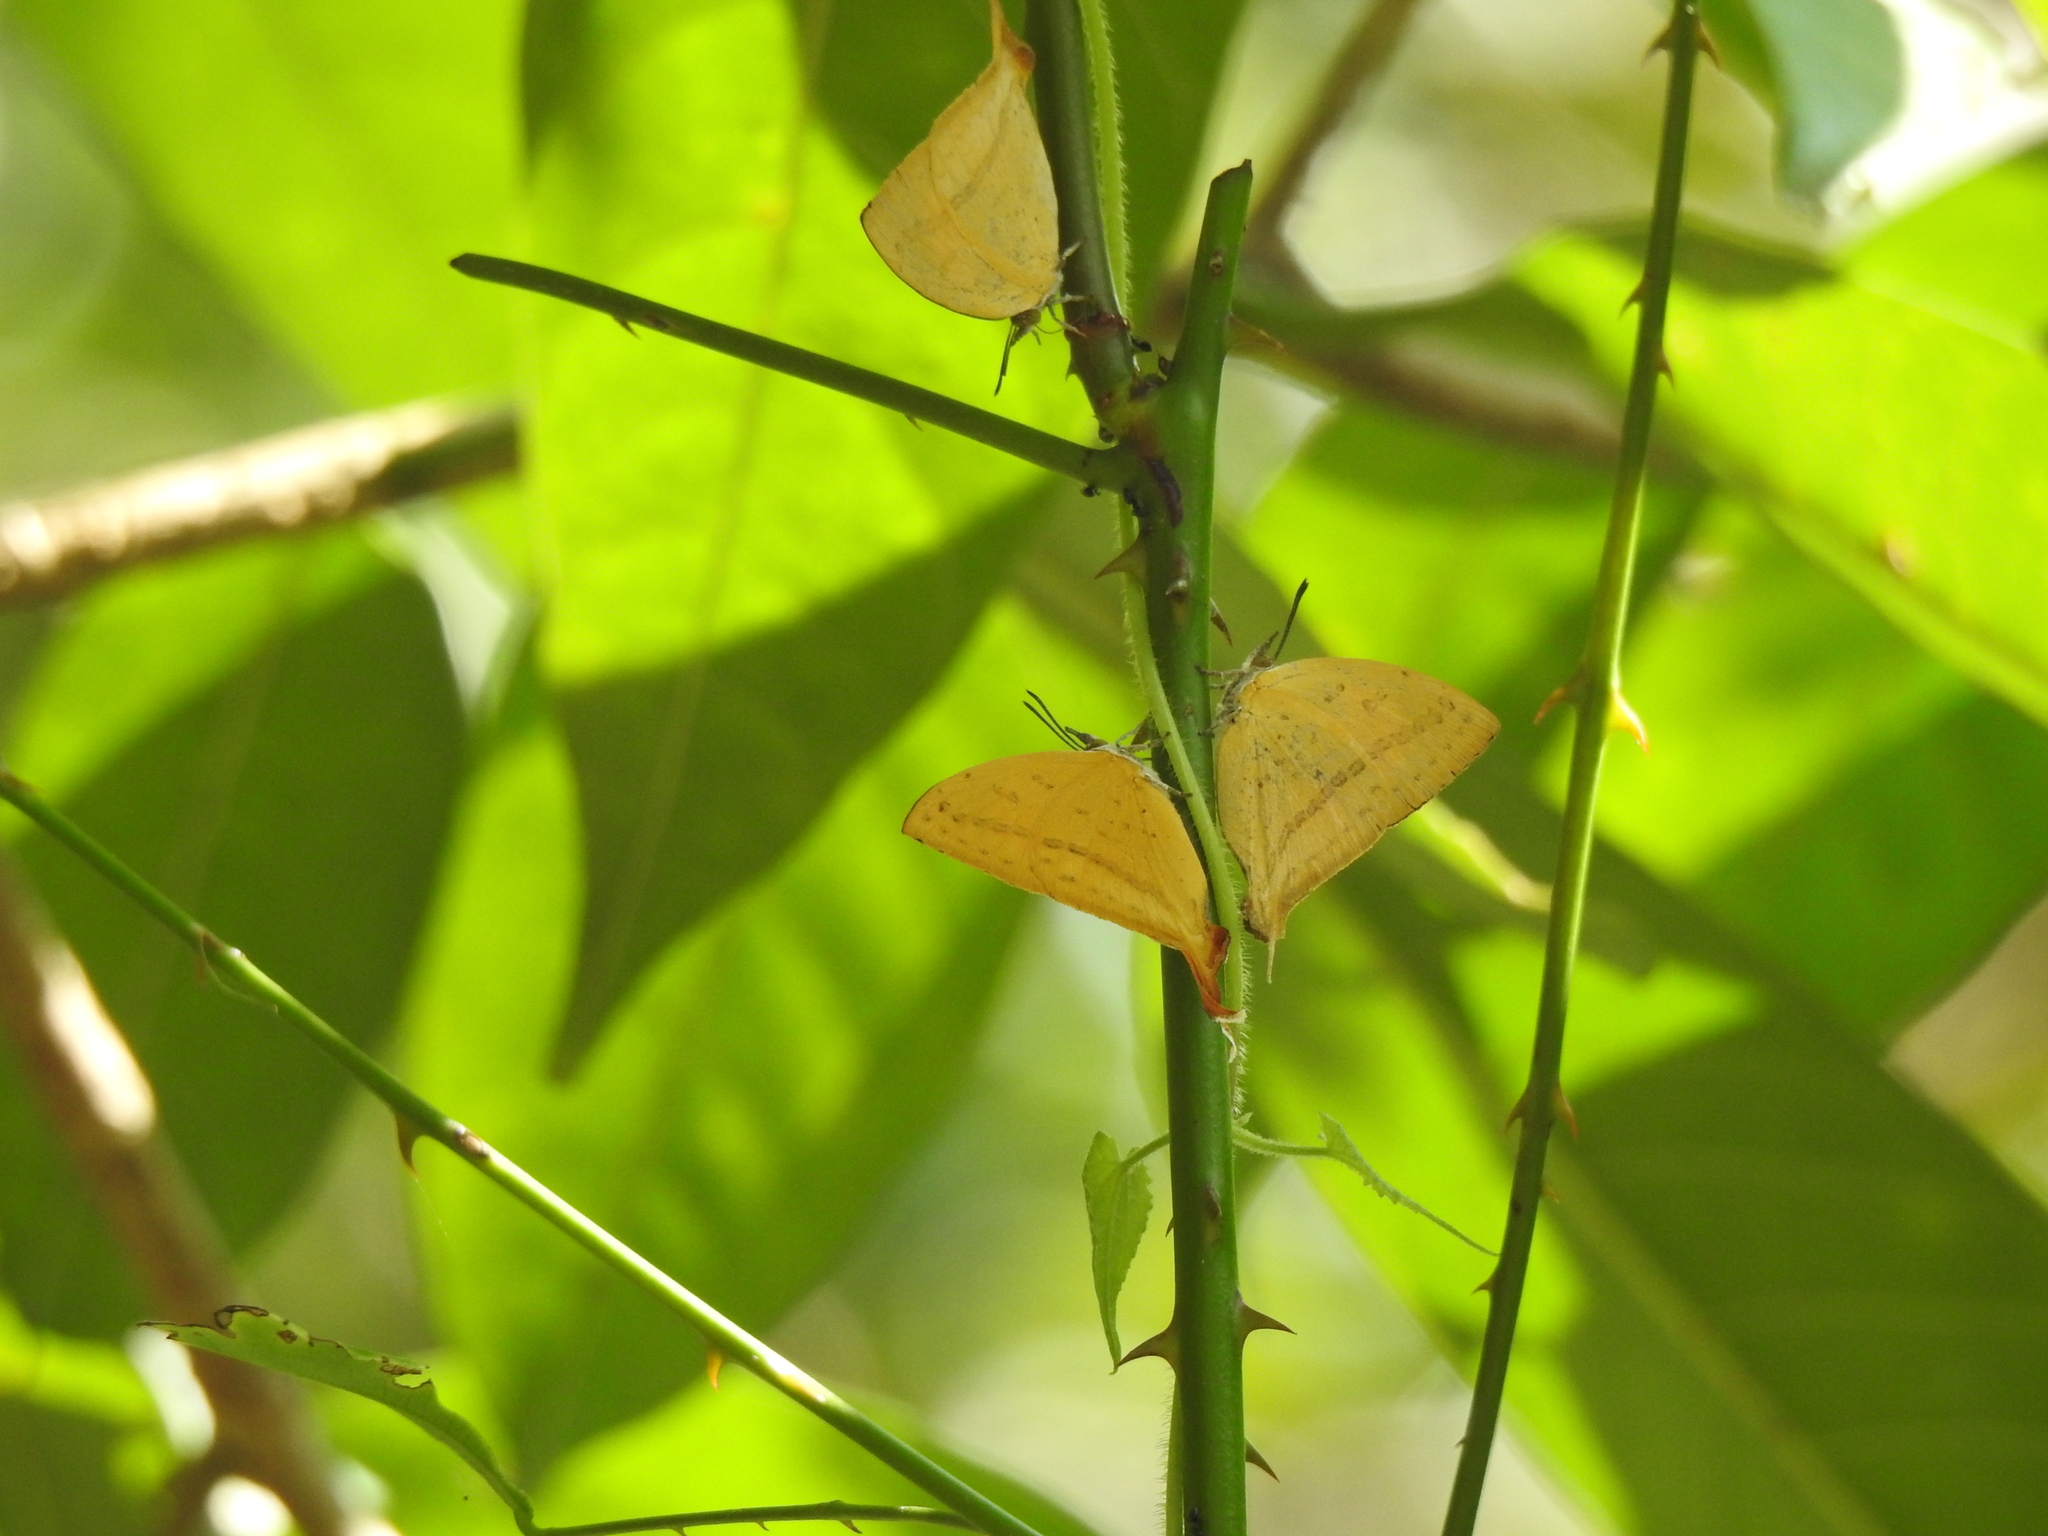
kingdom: Animalia
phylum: Arthropoda
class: Insecta
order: Lepidoptera
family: Lycaenidae
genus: Loxura
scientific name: Loxura atymnus
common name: Common yamfly
